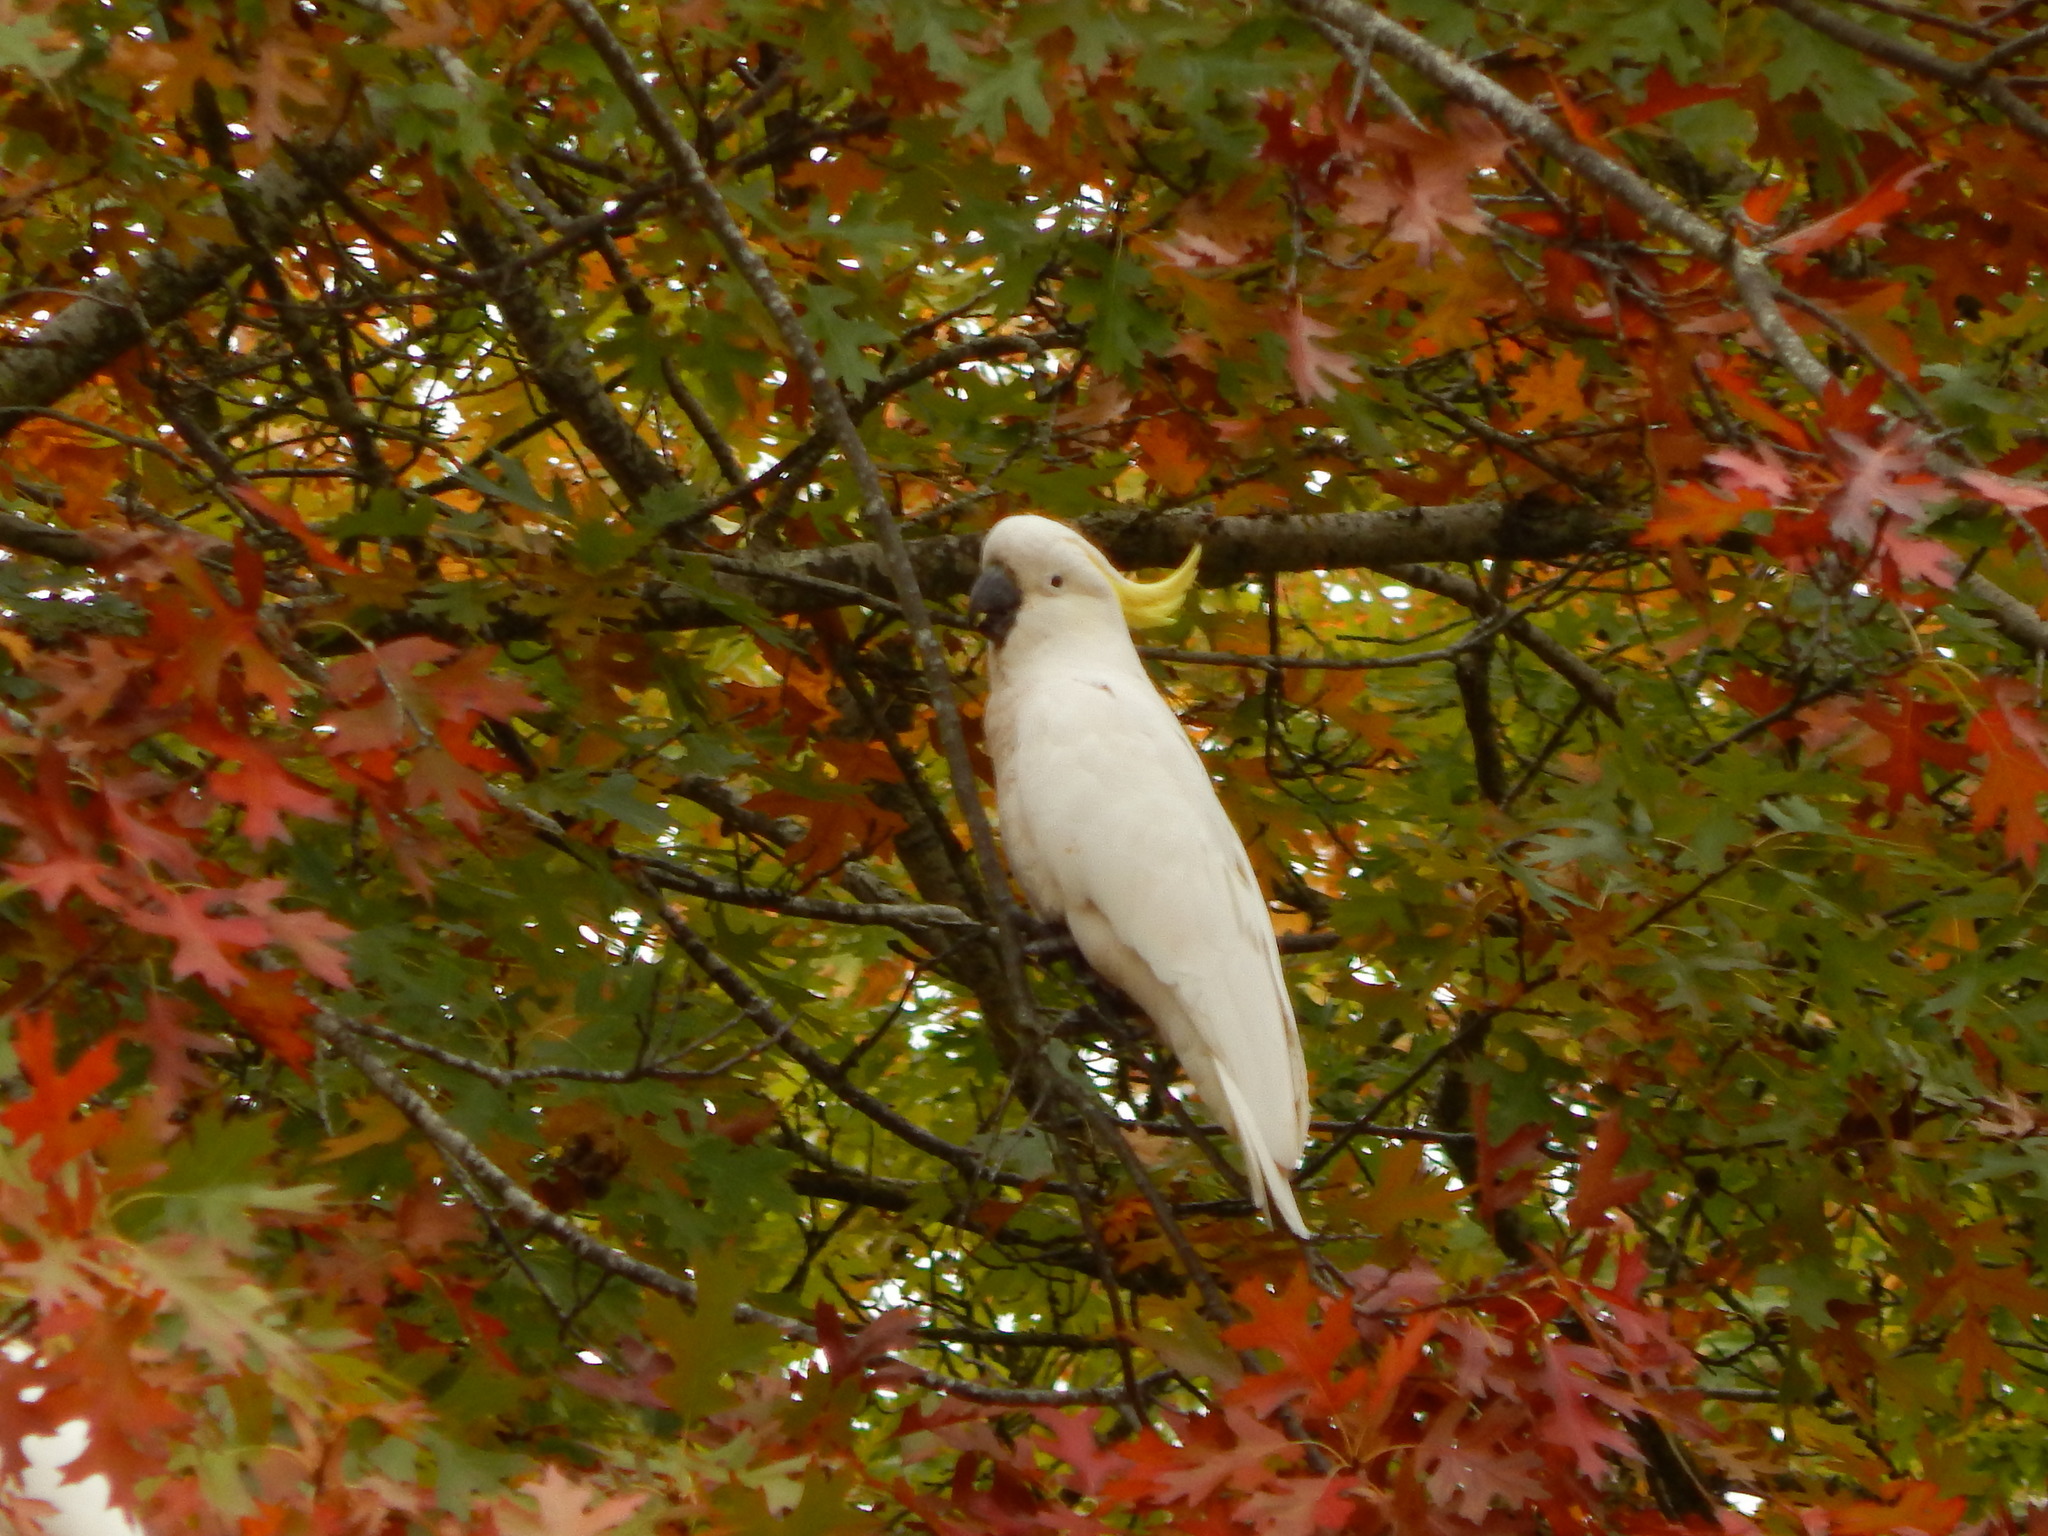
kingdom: Animalia
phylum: Chordata
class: Aves
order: Psittaciformes
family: Psittacidae
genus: Cacatua
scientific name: Cacatua galerita
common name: Sulphur-crested cockatoo
